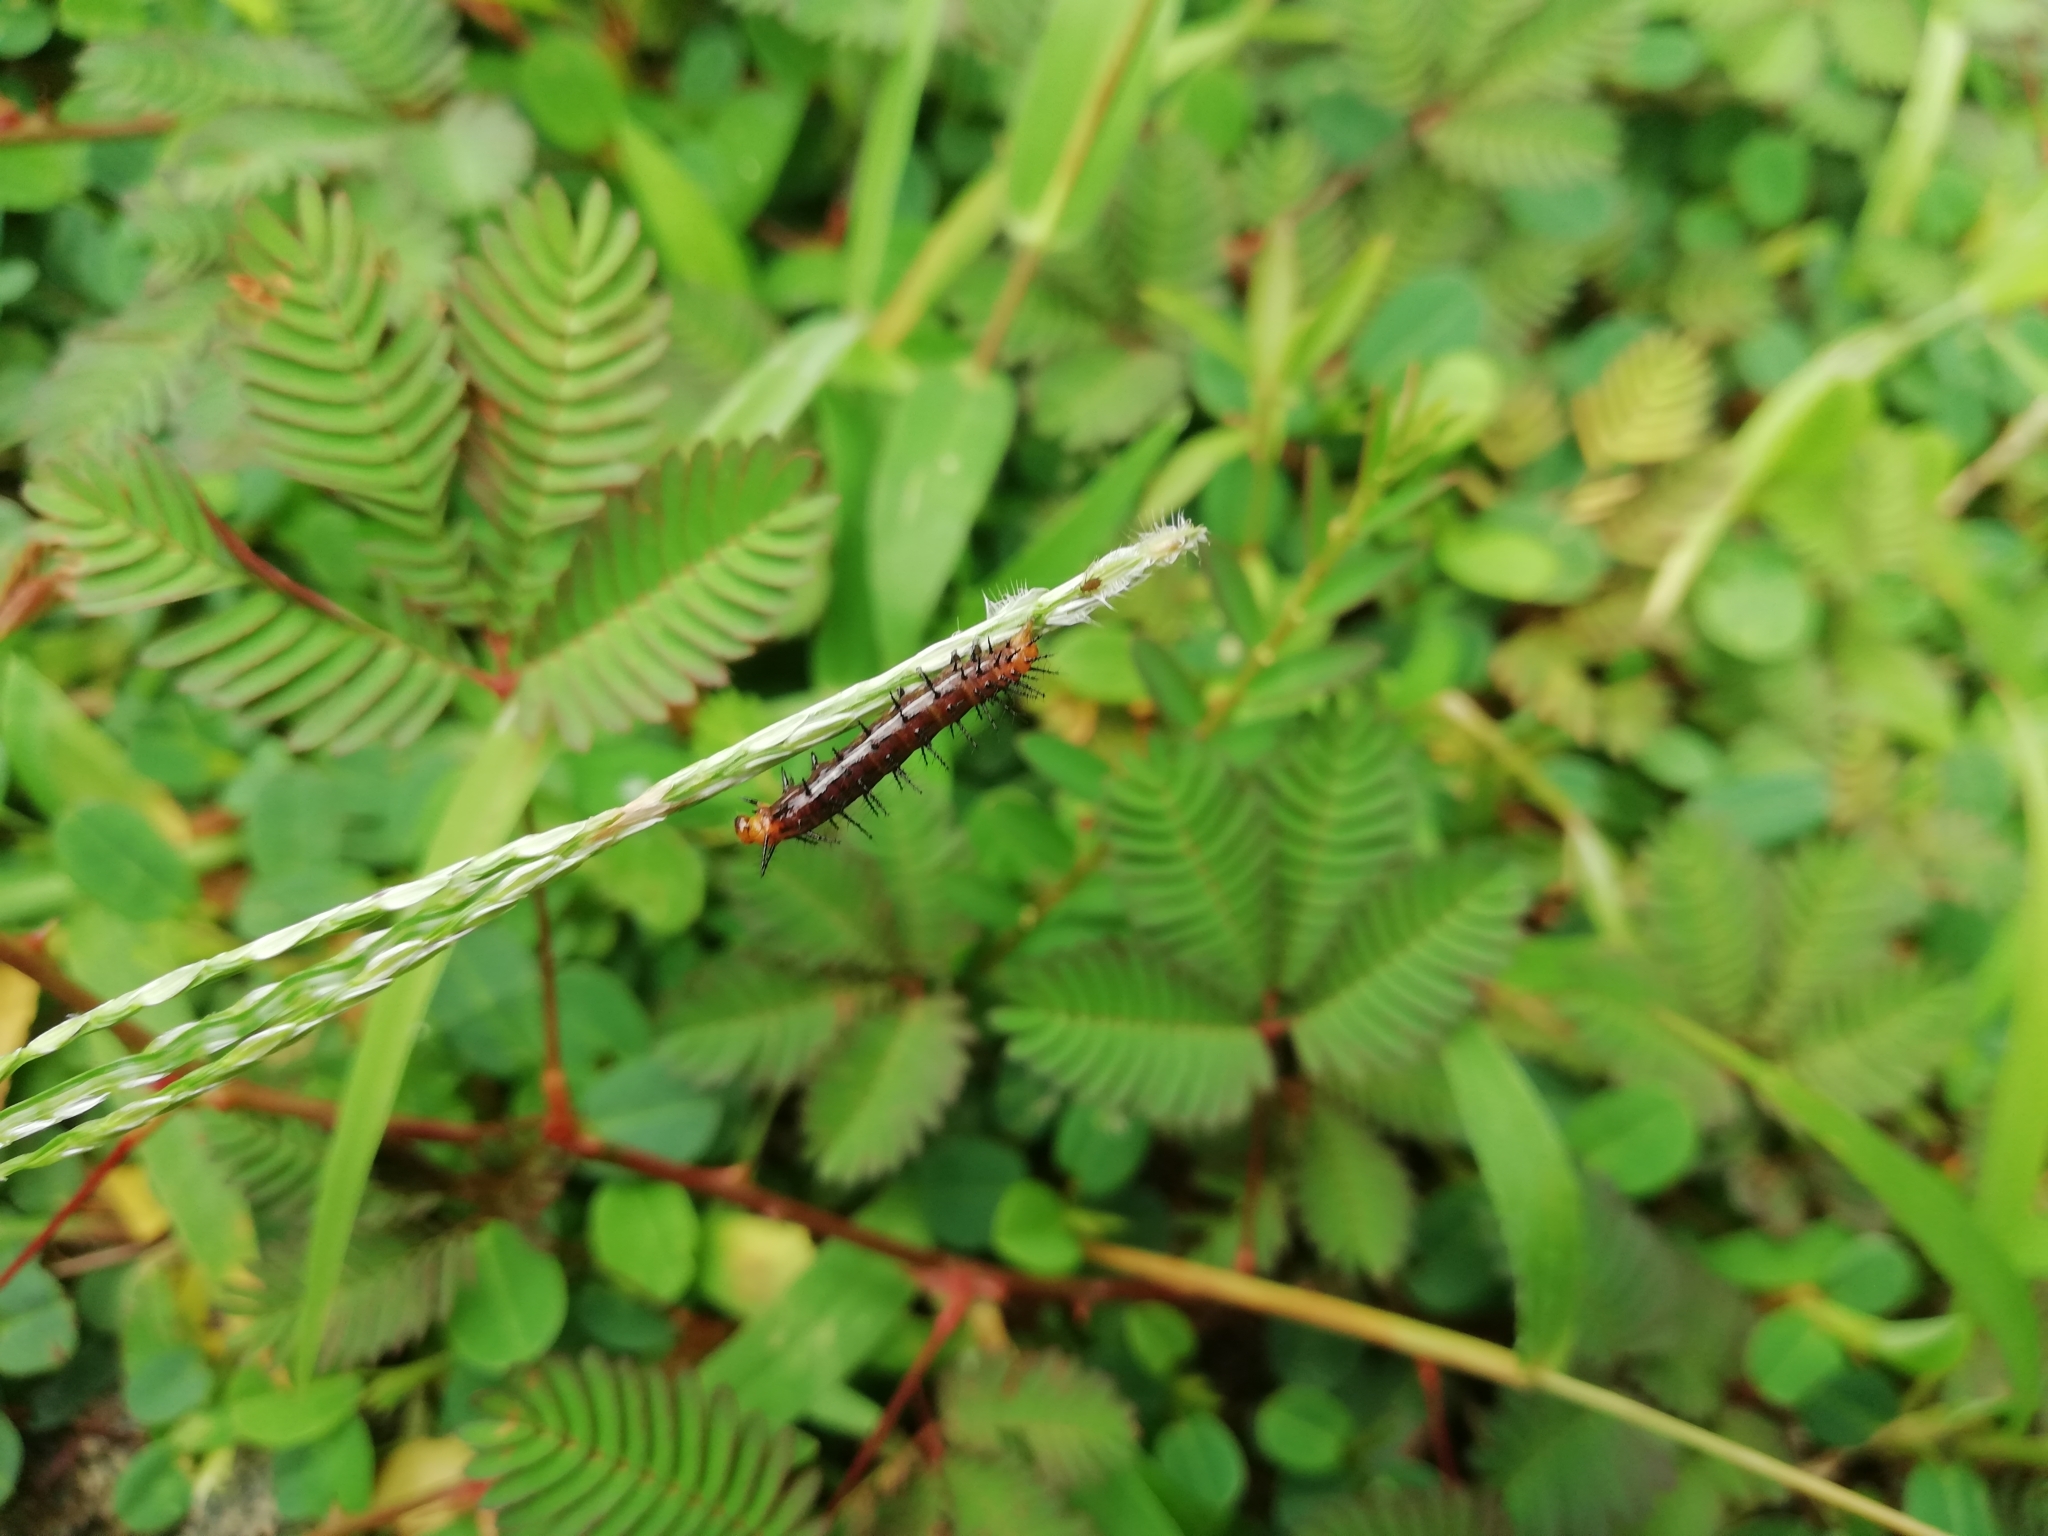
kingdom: Animalia
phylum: Arthropoda
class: Insecta
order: Lepidoptera
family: Nymphalidae
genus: Acraea
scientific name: Acraea terpsicore
